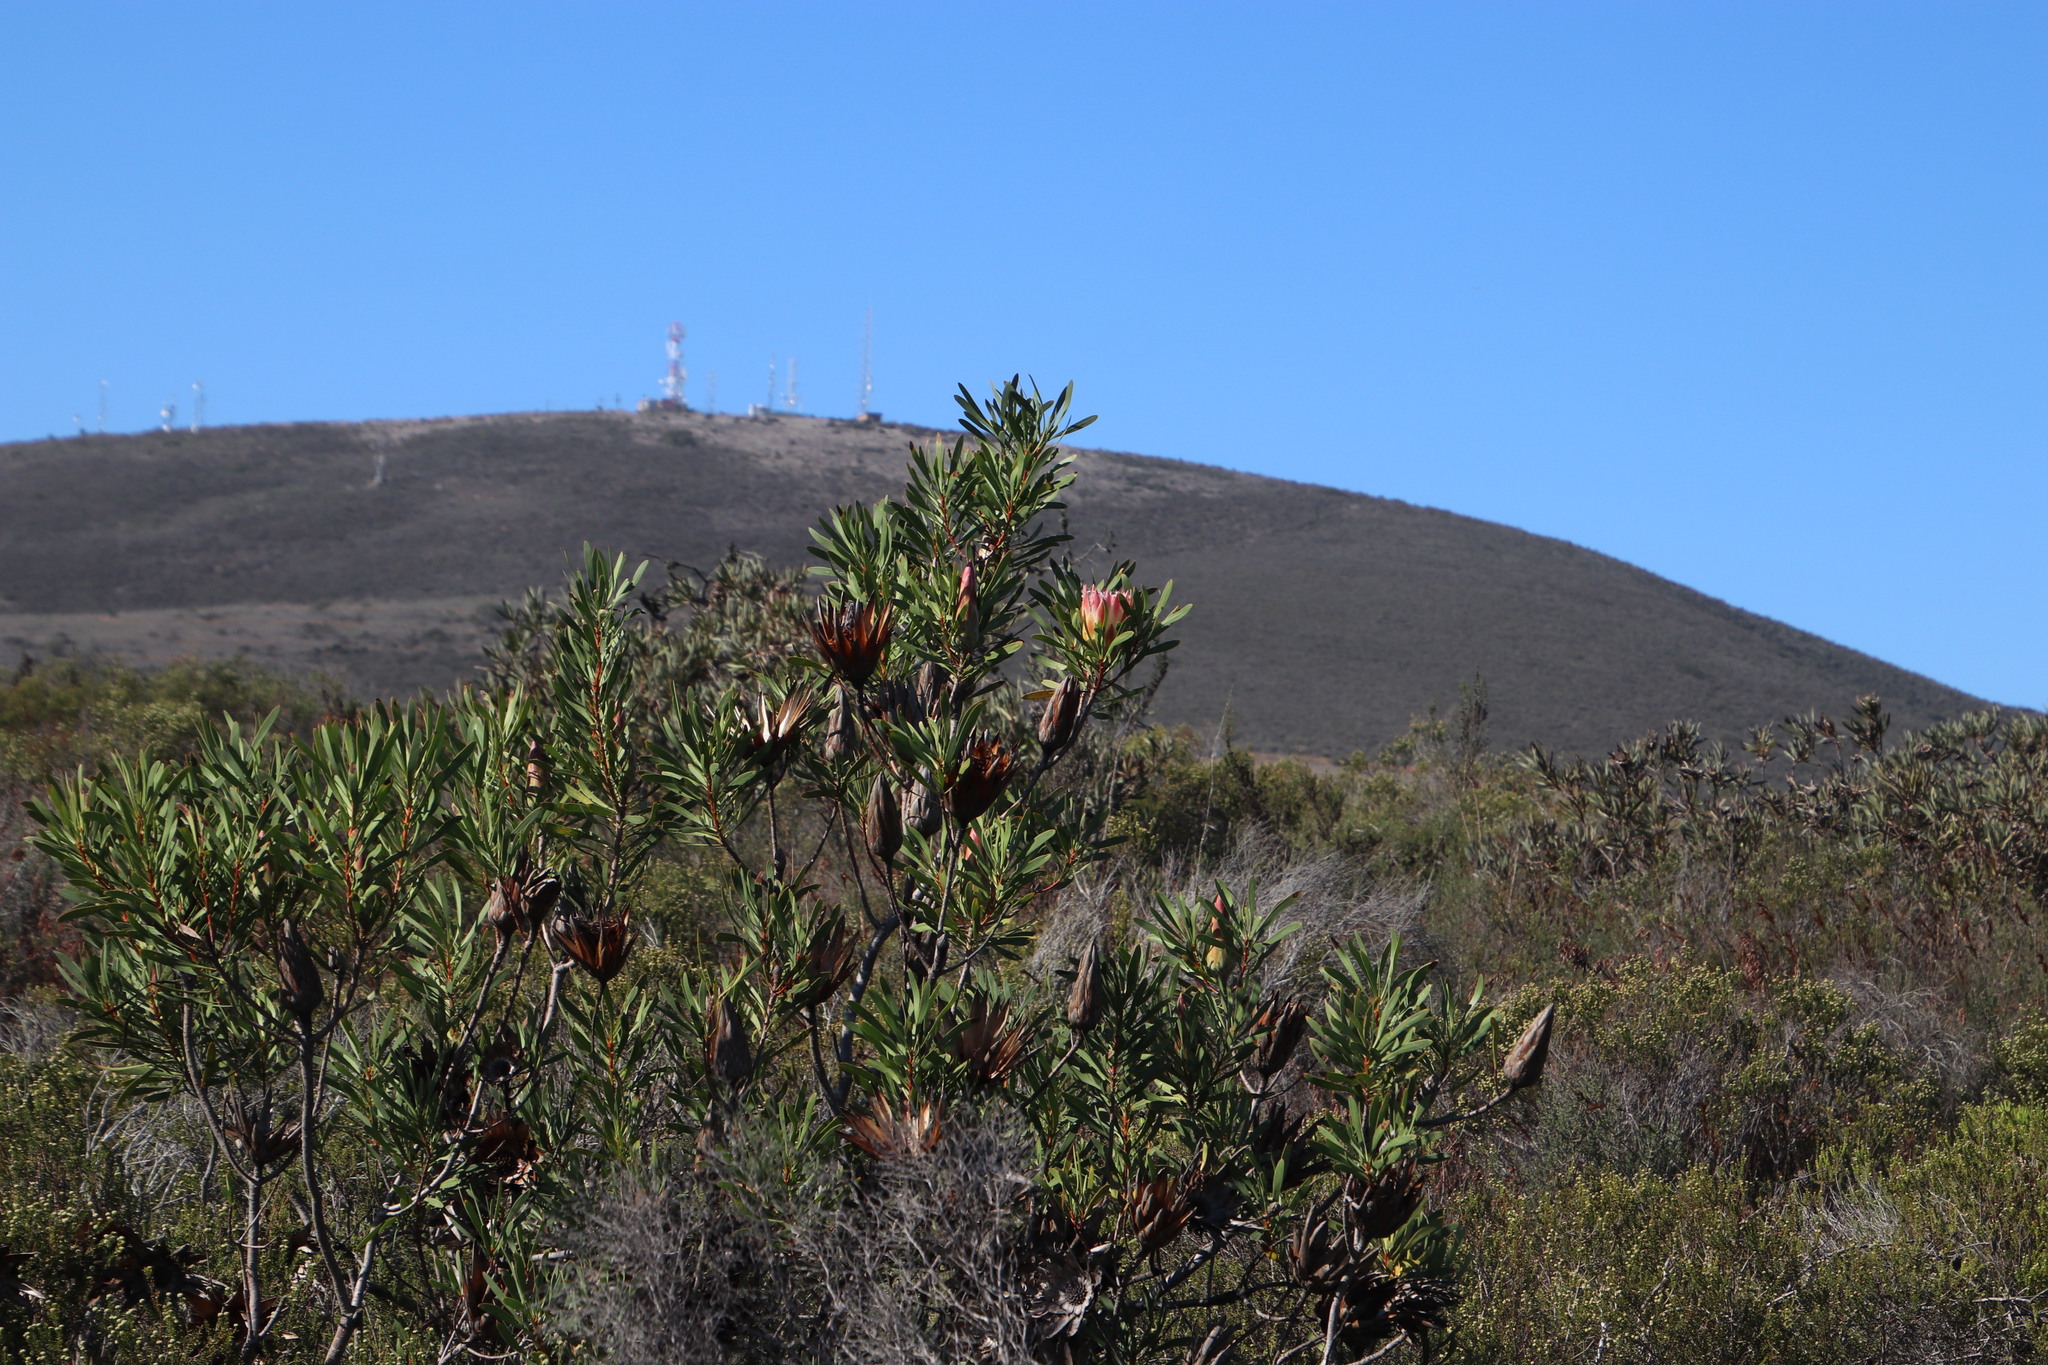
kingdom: Plantae
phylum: Tracheophyta
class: Magnoliopsida
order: Proteales
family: Proteaceae
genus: Protea
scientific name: Protea repens
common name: Sugarbush
